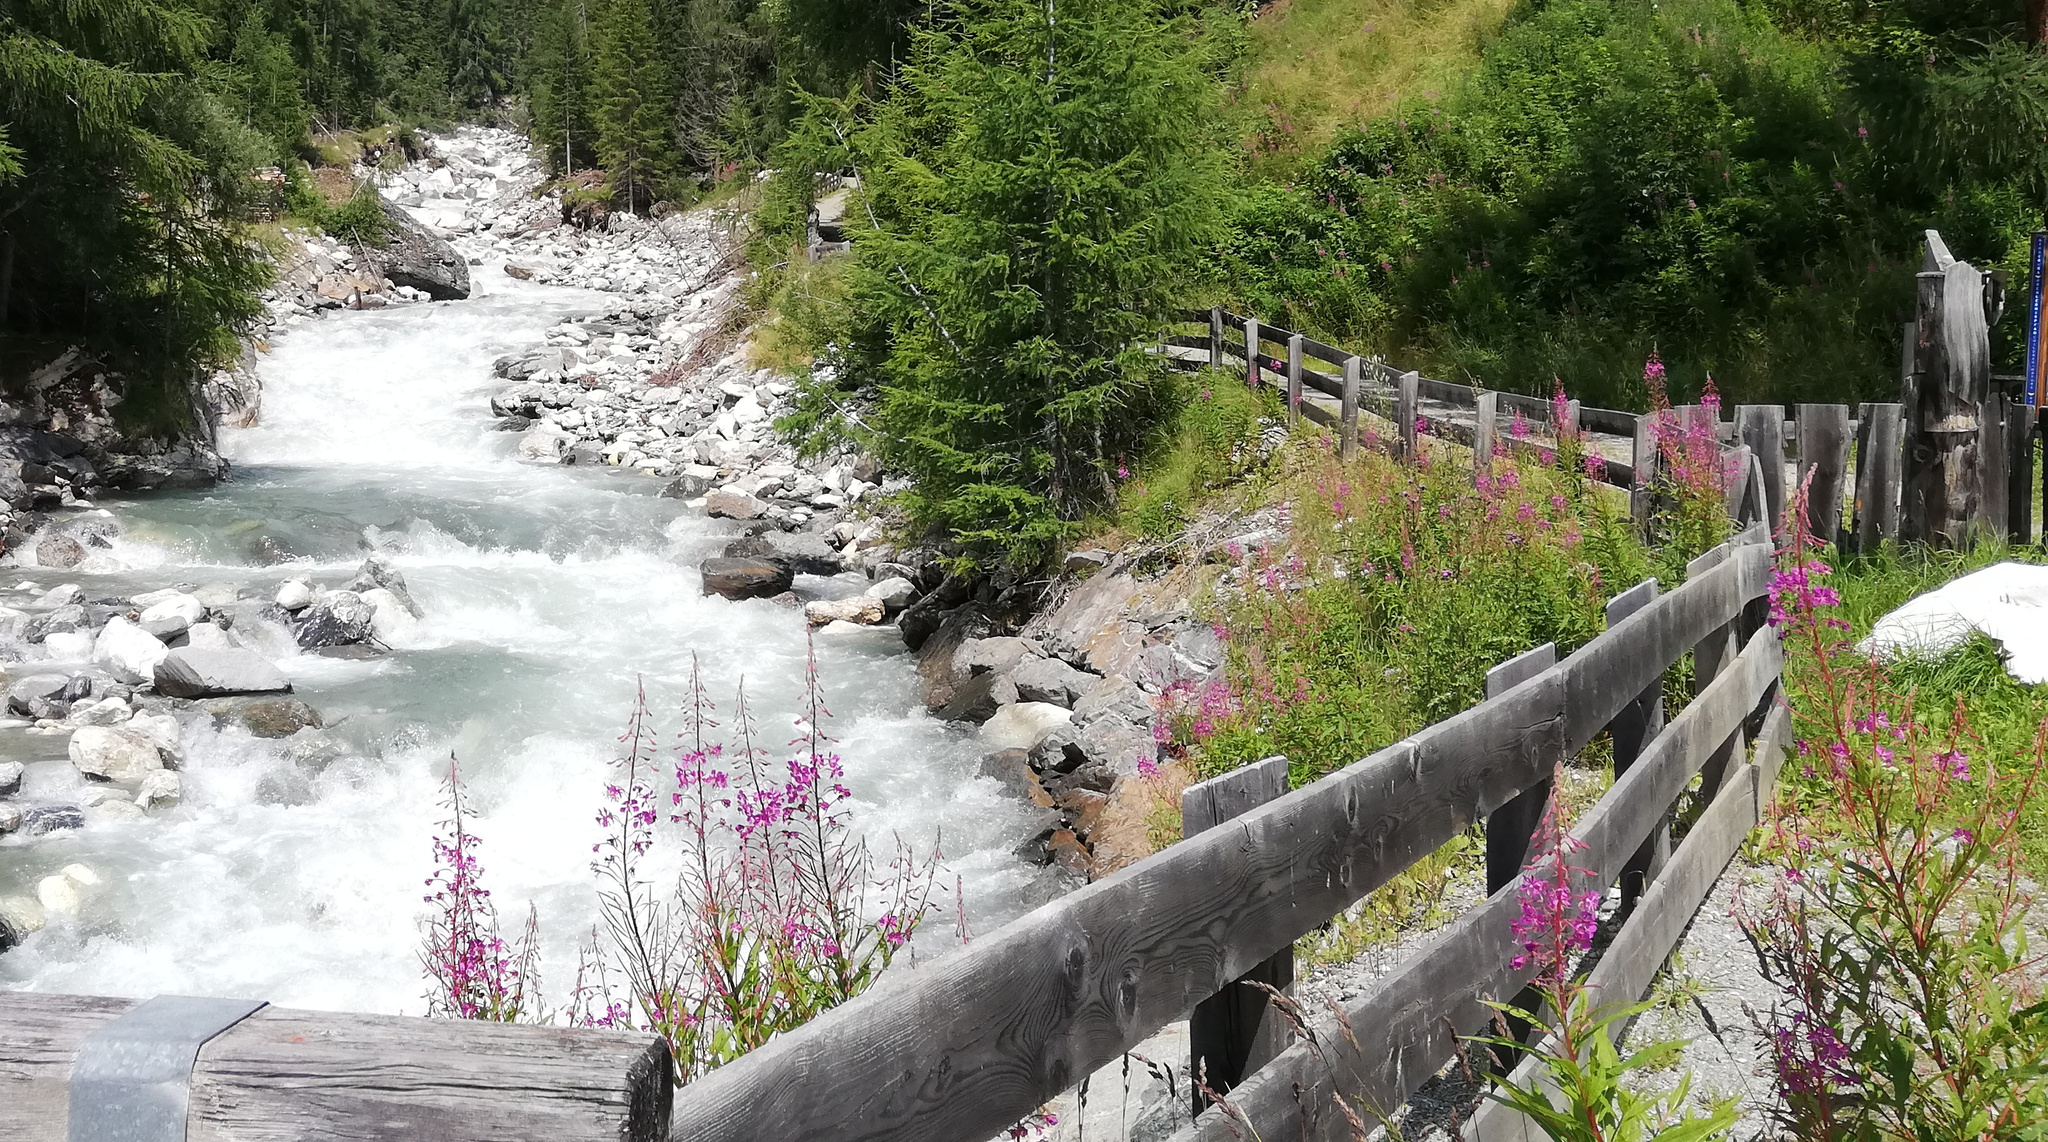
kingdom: Plantae
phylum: Tracheophyta
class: Magnoliopsida
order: Myrtales
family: Onagraceae
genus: Chamaenerion
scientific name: Chamaenerion angustifolium
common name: Fireweed
